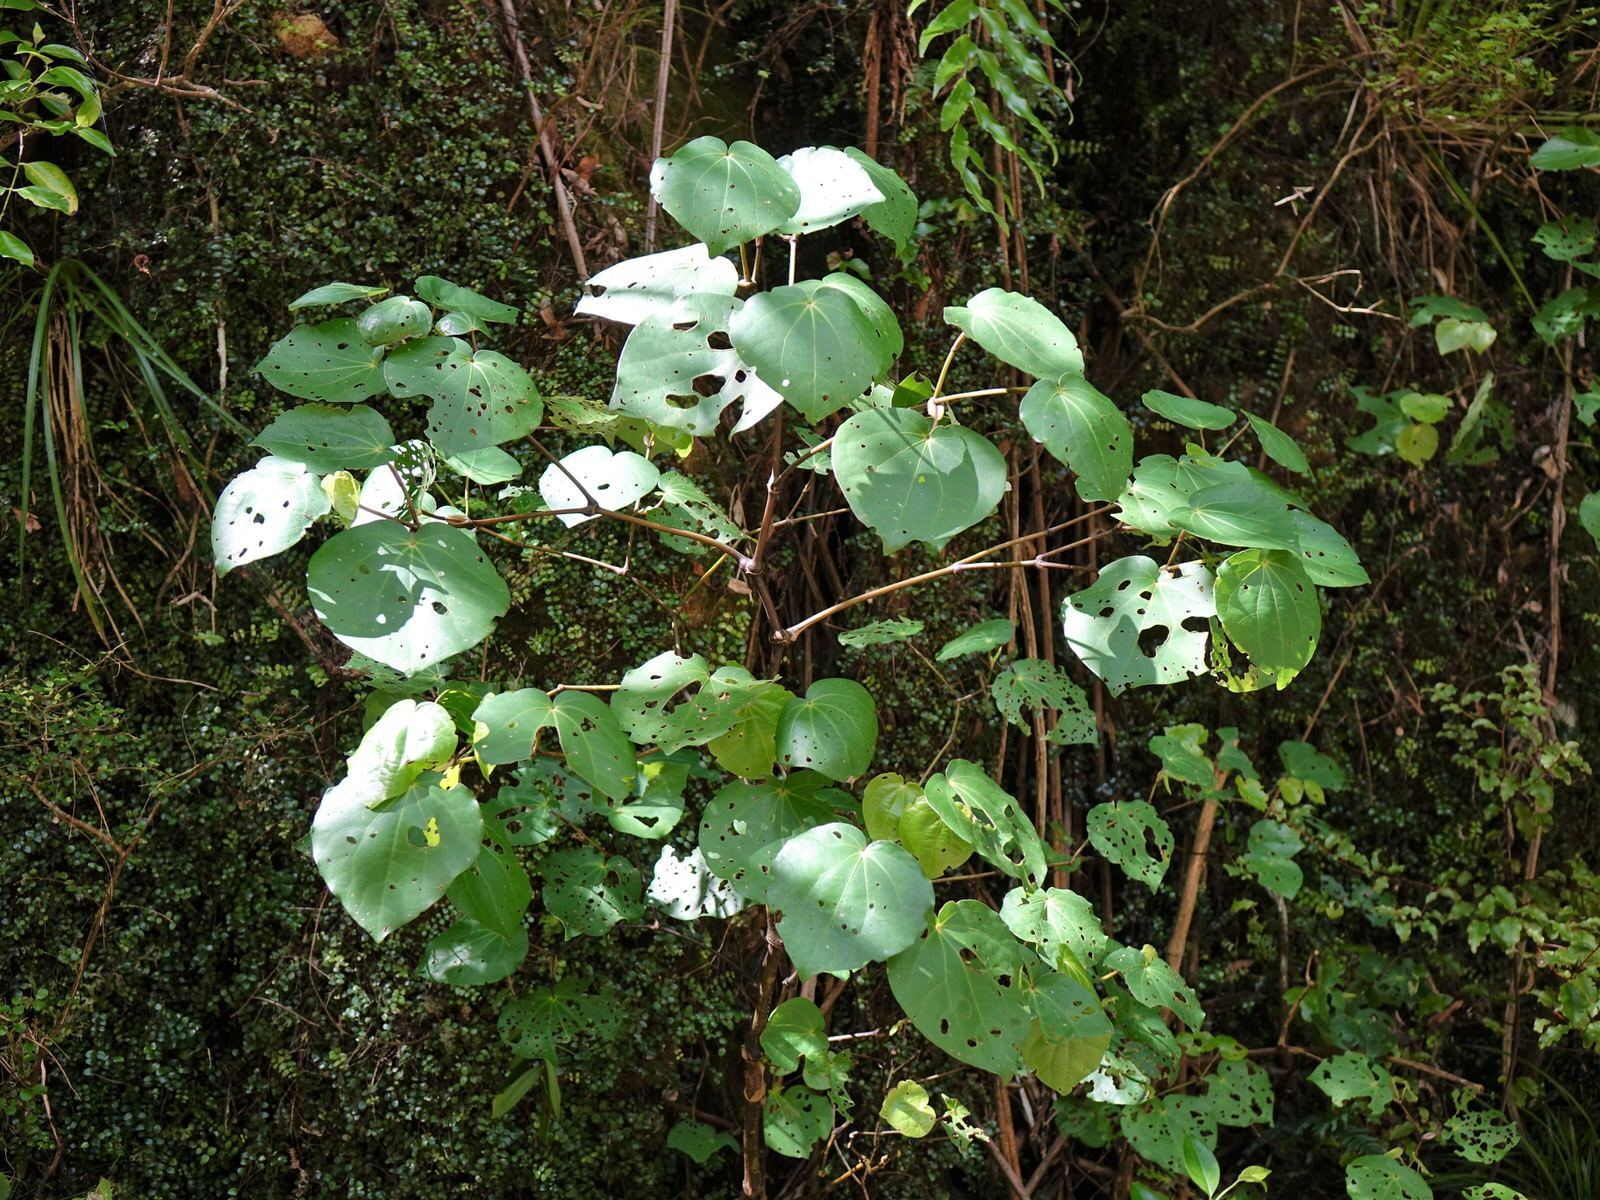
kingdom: Plantae
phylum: Tracheophyta
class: Magnoliopsida
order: Piperales
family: Piperaceae
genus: Macropiper
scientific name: Macropiper excelsum
